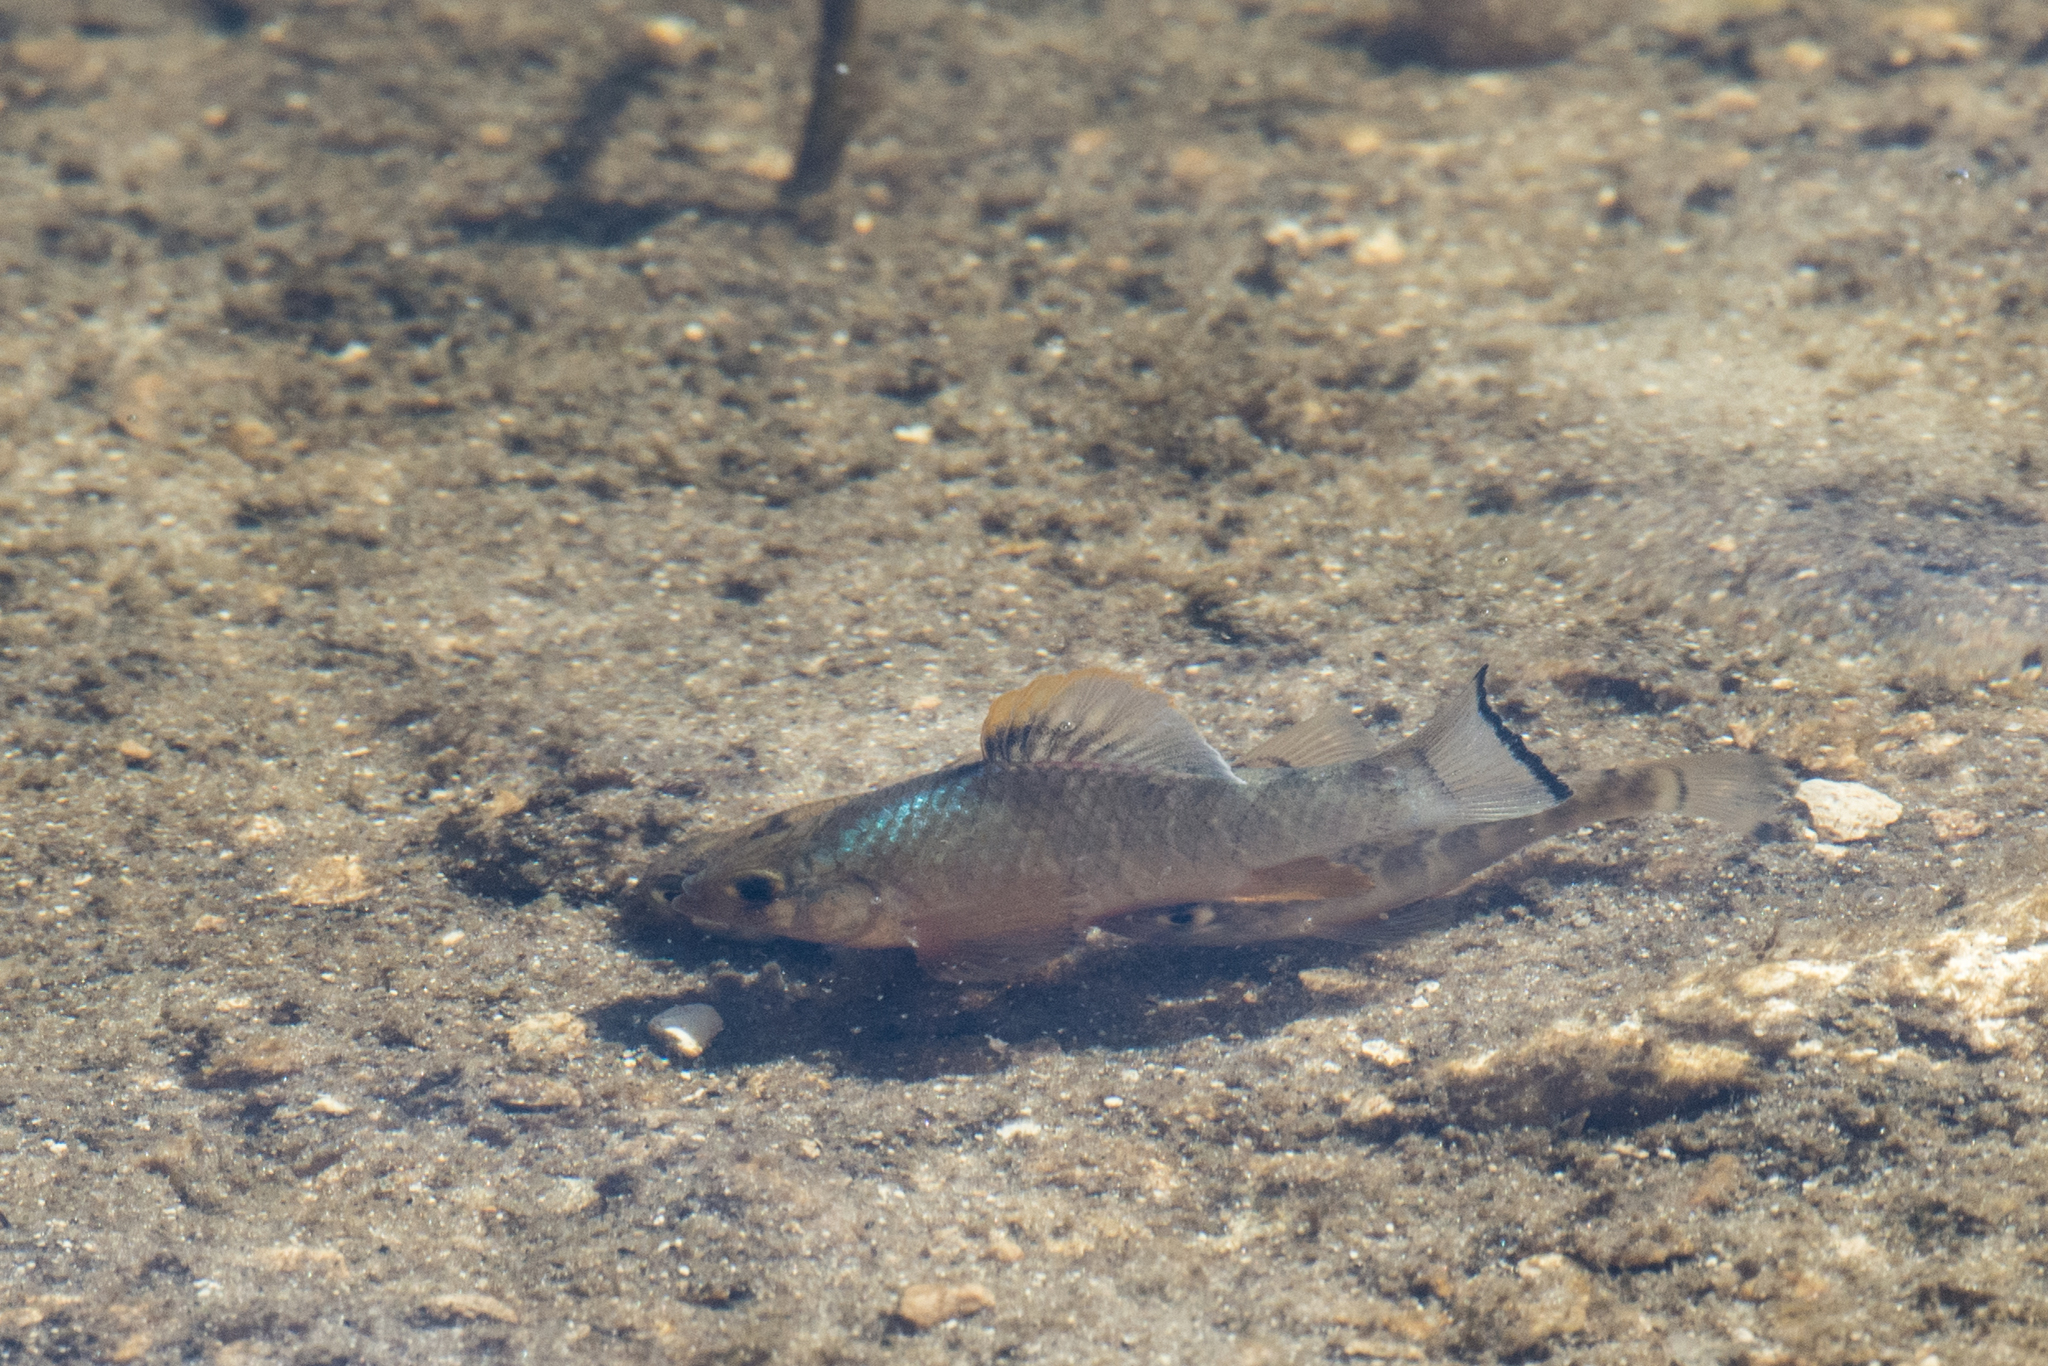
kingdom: Animalia
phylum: Chordata
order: Cyprinodontiformes
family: Cyprinodontidae
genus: Cyprinodon
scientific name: Cyprinodon variegatus
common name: Sheepshead minnow
